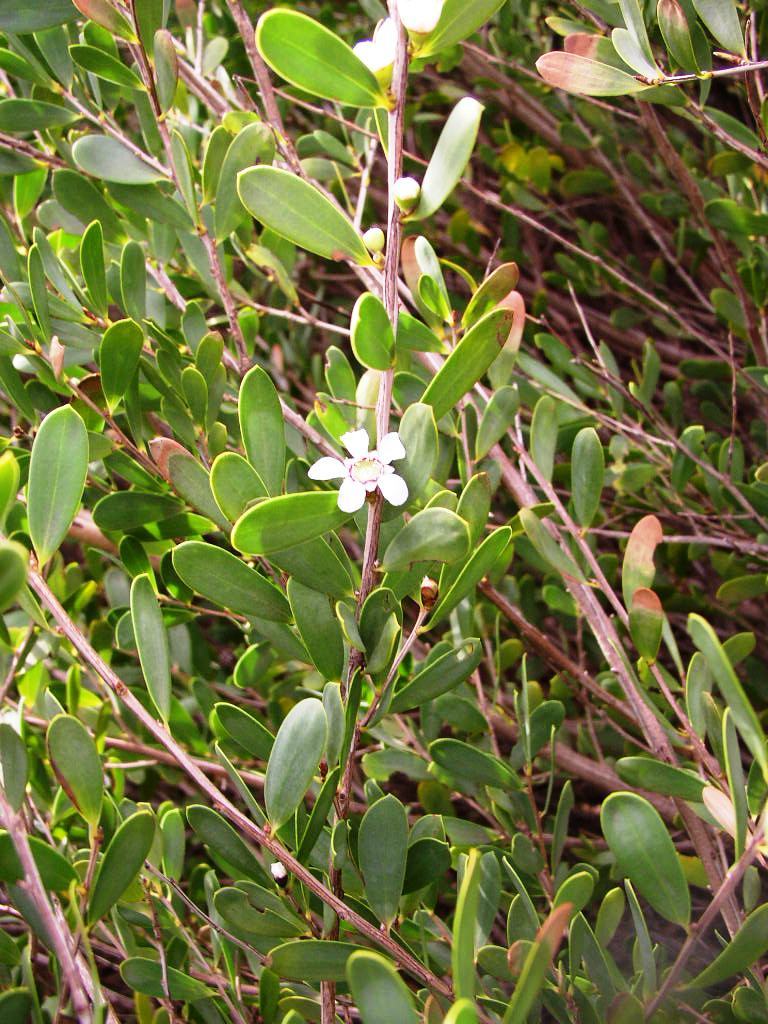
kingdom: Plantae
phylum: Tracheophyta
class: Magnoliopsida
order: Myrtales
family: Myrtaceae
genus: Leptospermum
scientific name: Leptospermum laevigatum
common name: Australian teatree
